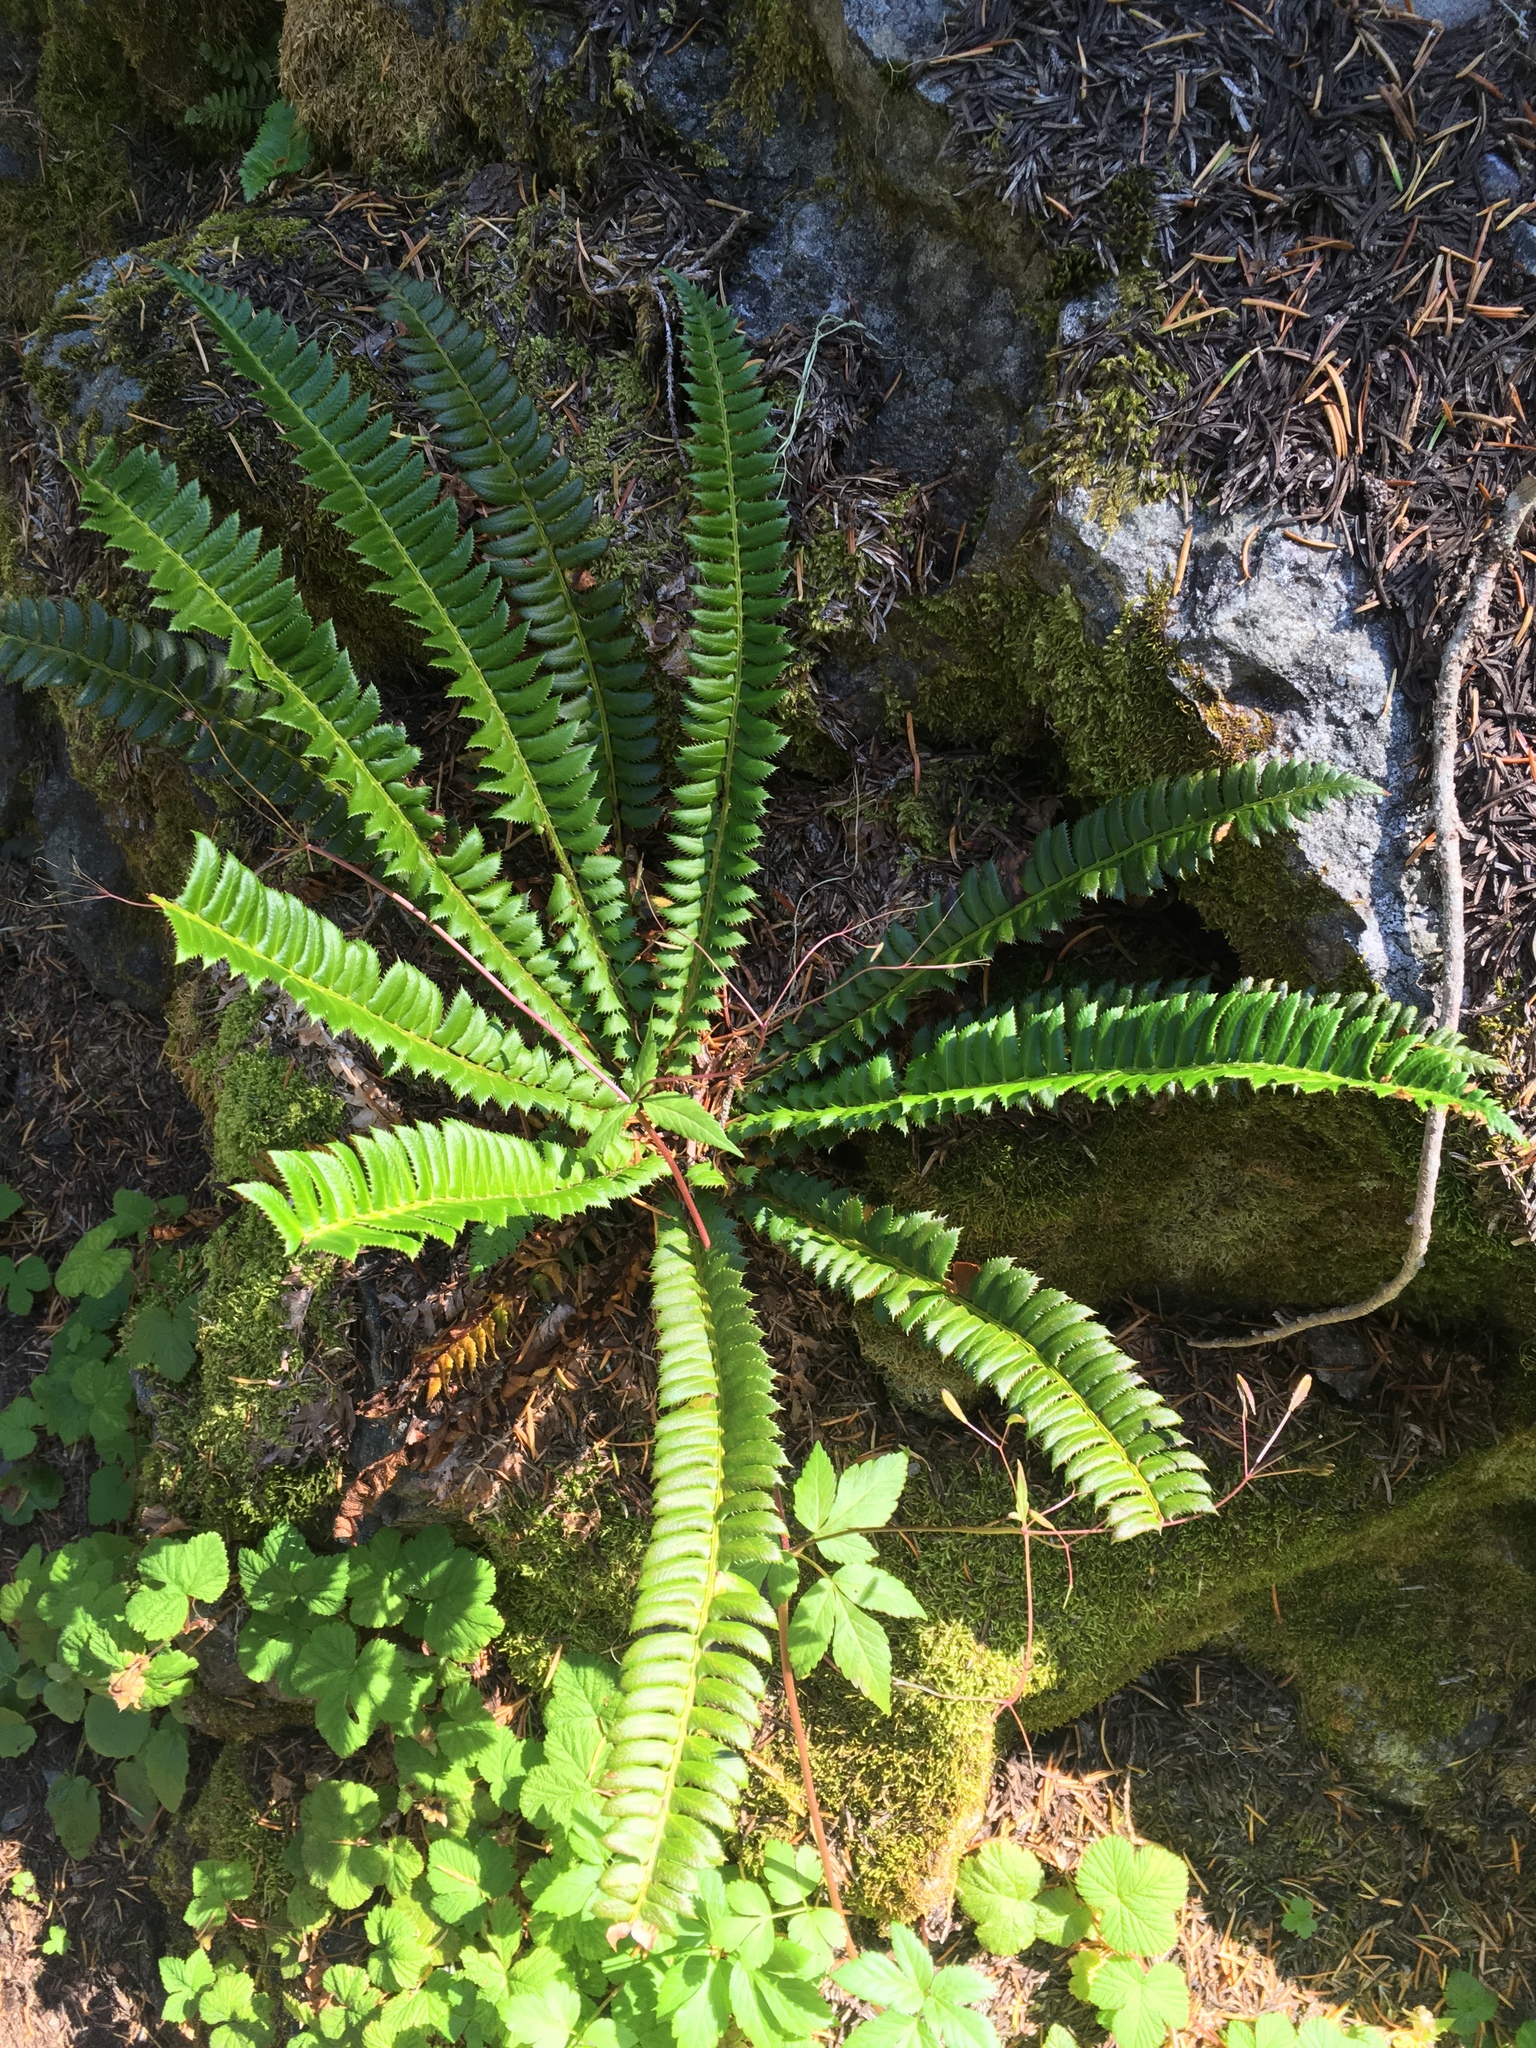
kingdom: Plantae
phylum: Tracheophyta
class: Polypodiopsida
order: Polypodiales
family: Dryopteridaceae
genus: Polystichum
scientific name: Polystichum lonchitis
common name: Holly fern
